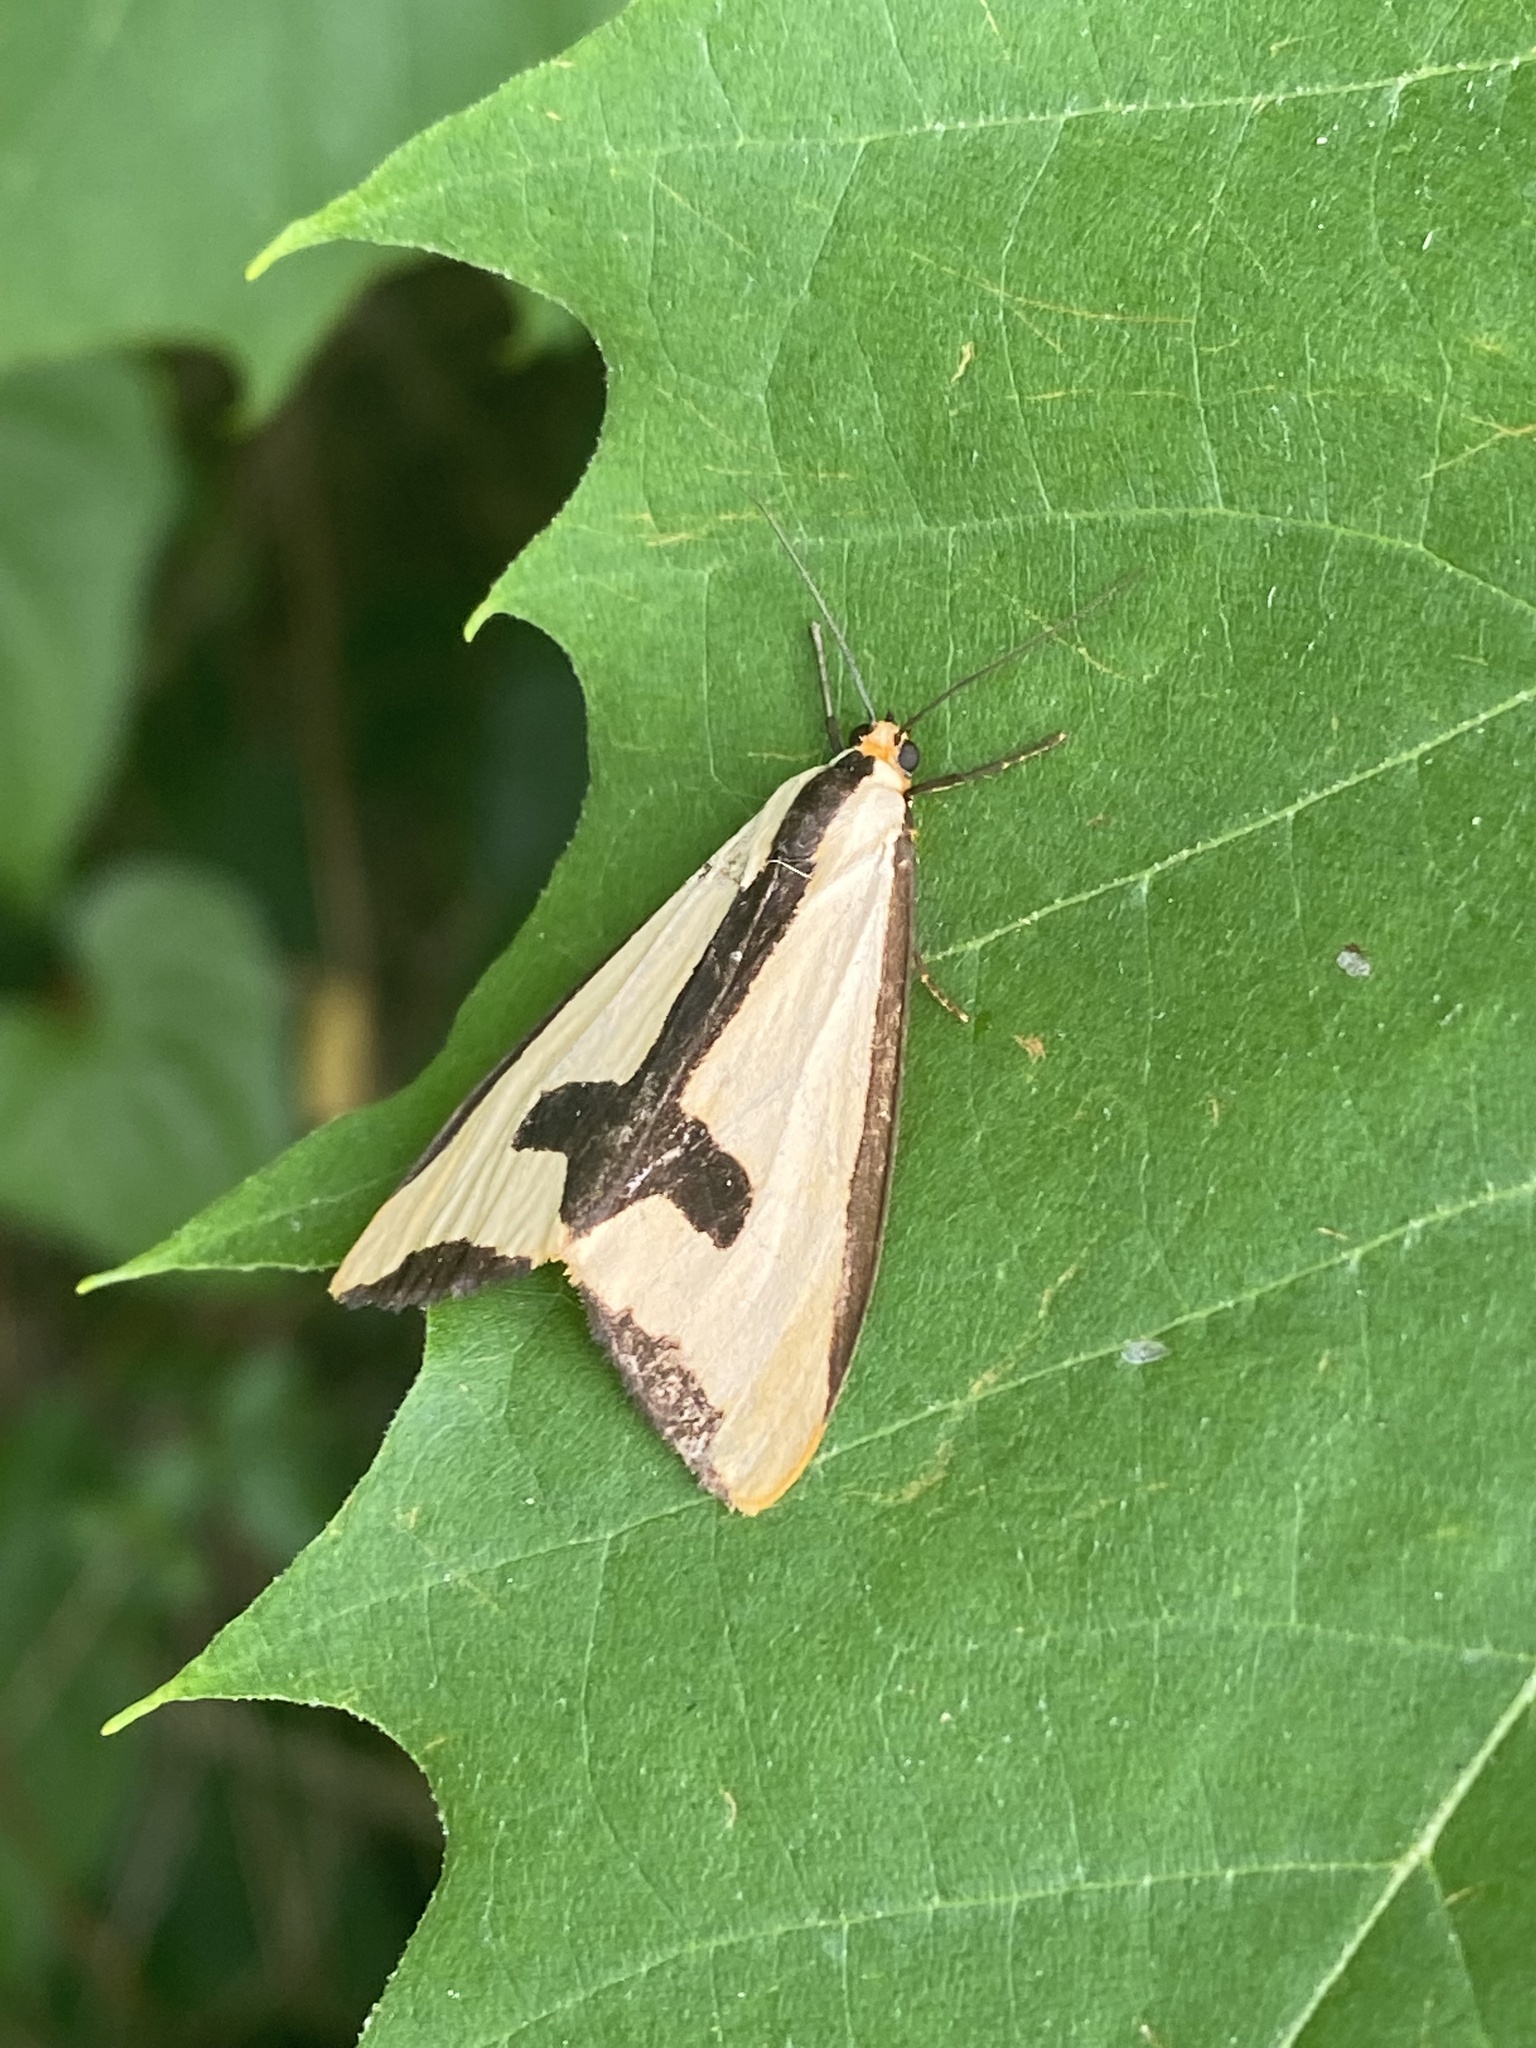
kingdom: Animalia
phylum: Arthropoda
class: Insecta
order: Lepidoptera
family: Erebidae
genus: Haploa
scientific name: Haploa clymene
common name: Clymene moth
